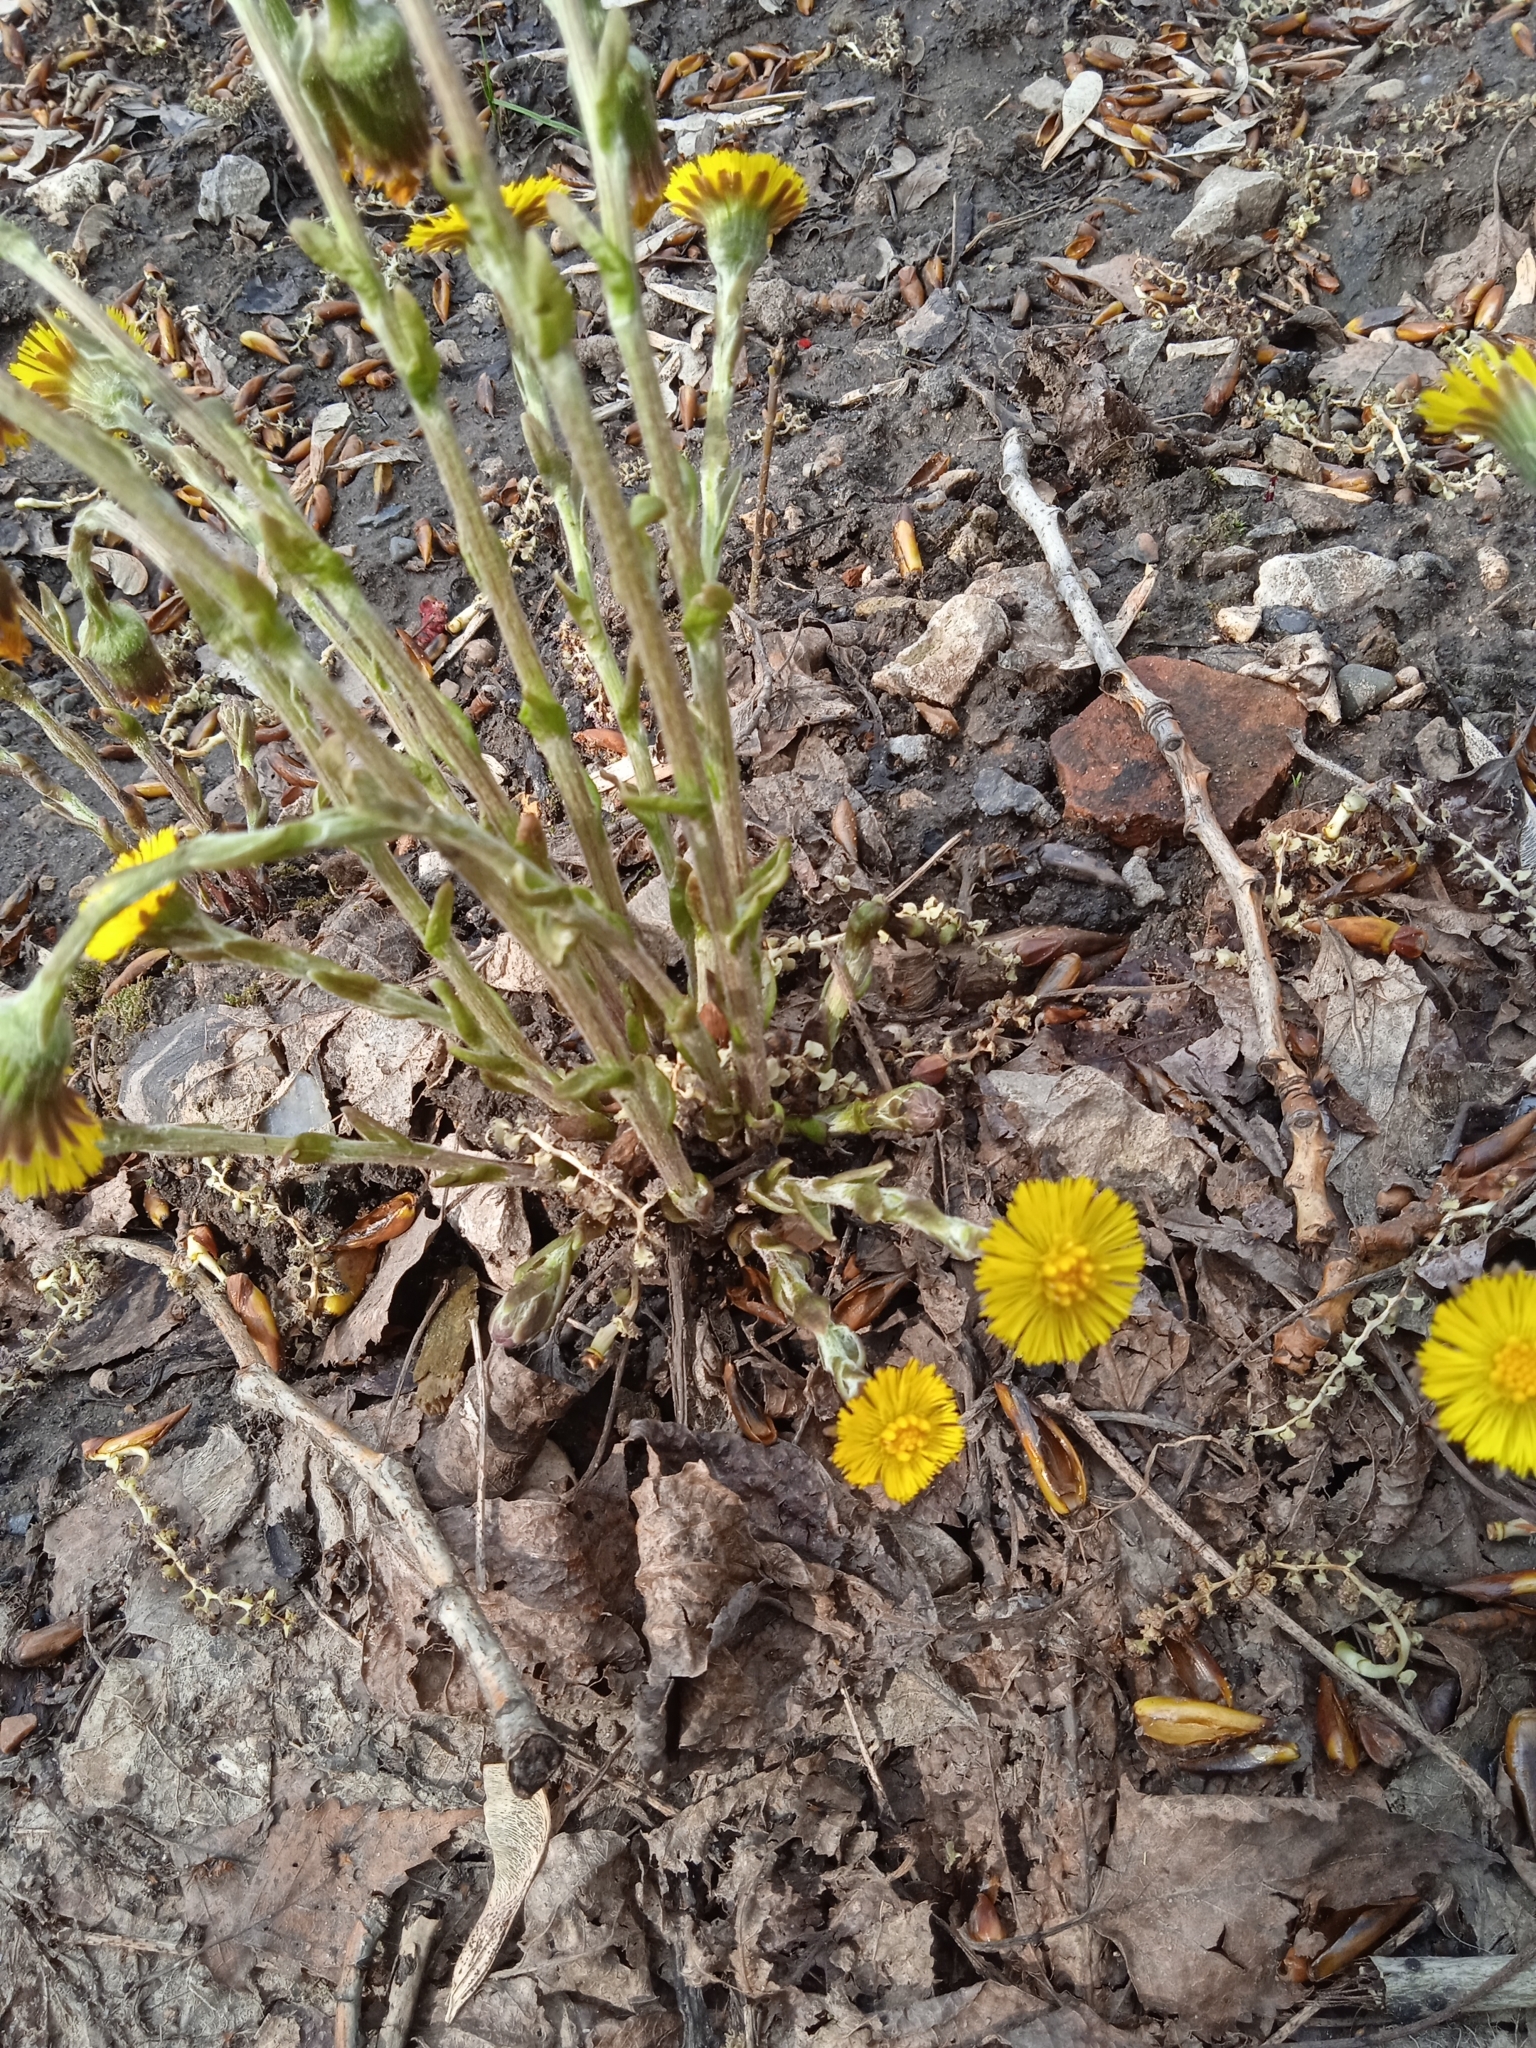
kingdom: Plantae
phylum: Tracheophyta
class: Magnoliopsida
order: Asterales
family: Asteraceae
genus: Tussilago
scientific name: Tussilago farfara
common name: Coltsfoot
